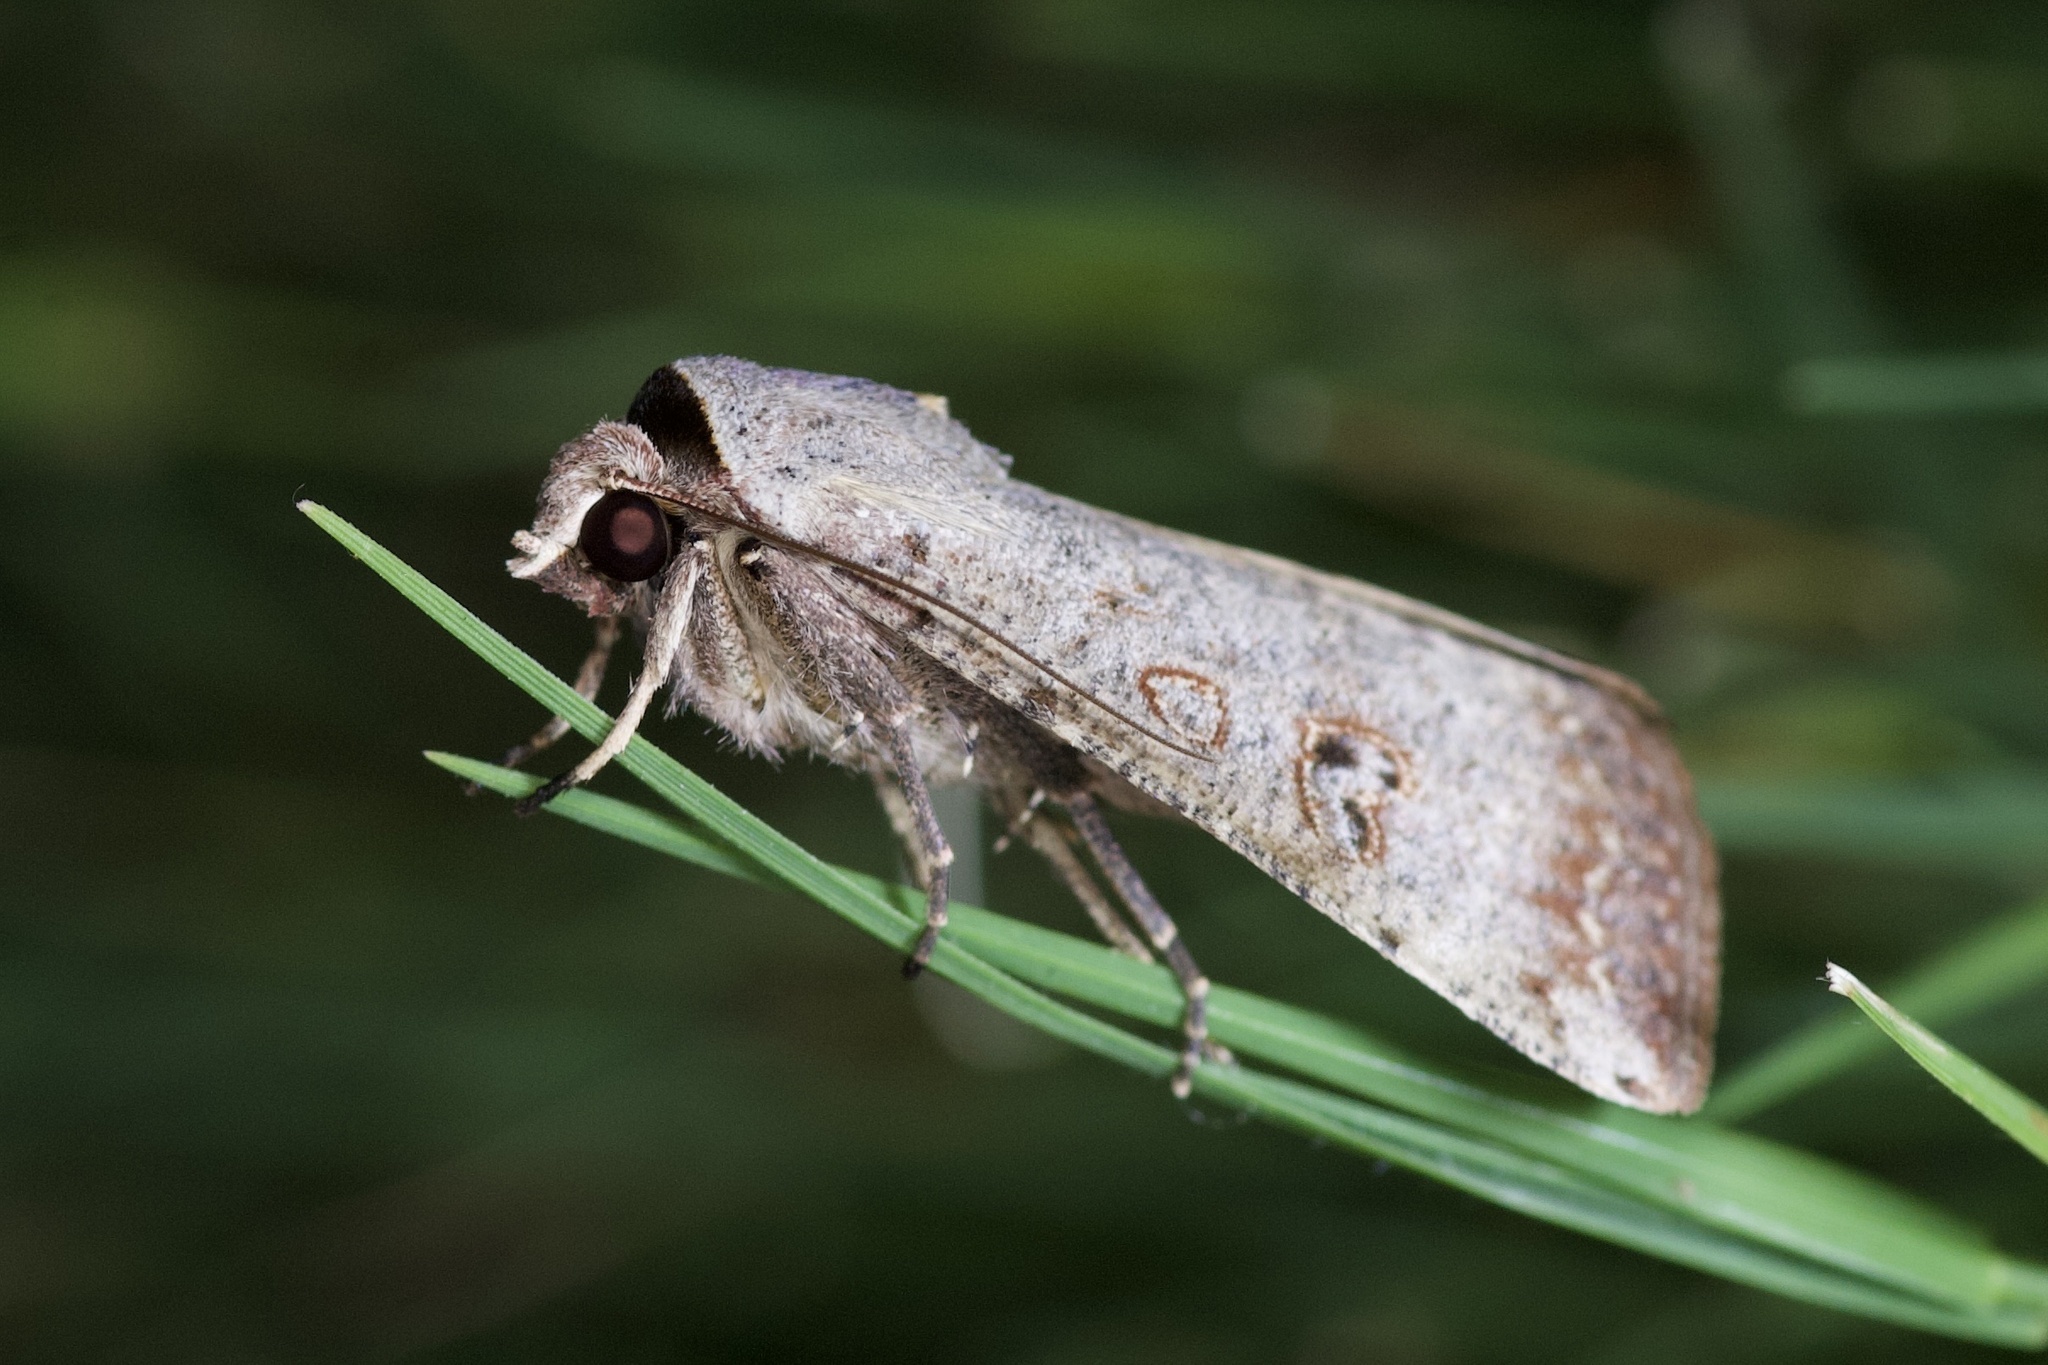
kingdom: Animalia
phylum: Arthropoda
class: Insecta
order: Lepidoptera
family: Noctuidae
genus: Anicla
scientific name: Anicla infecta
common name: Green cutworm
